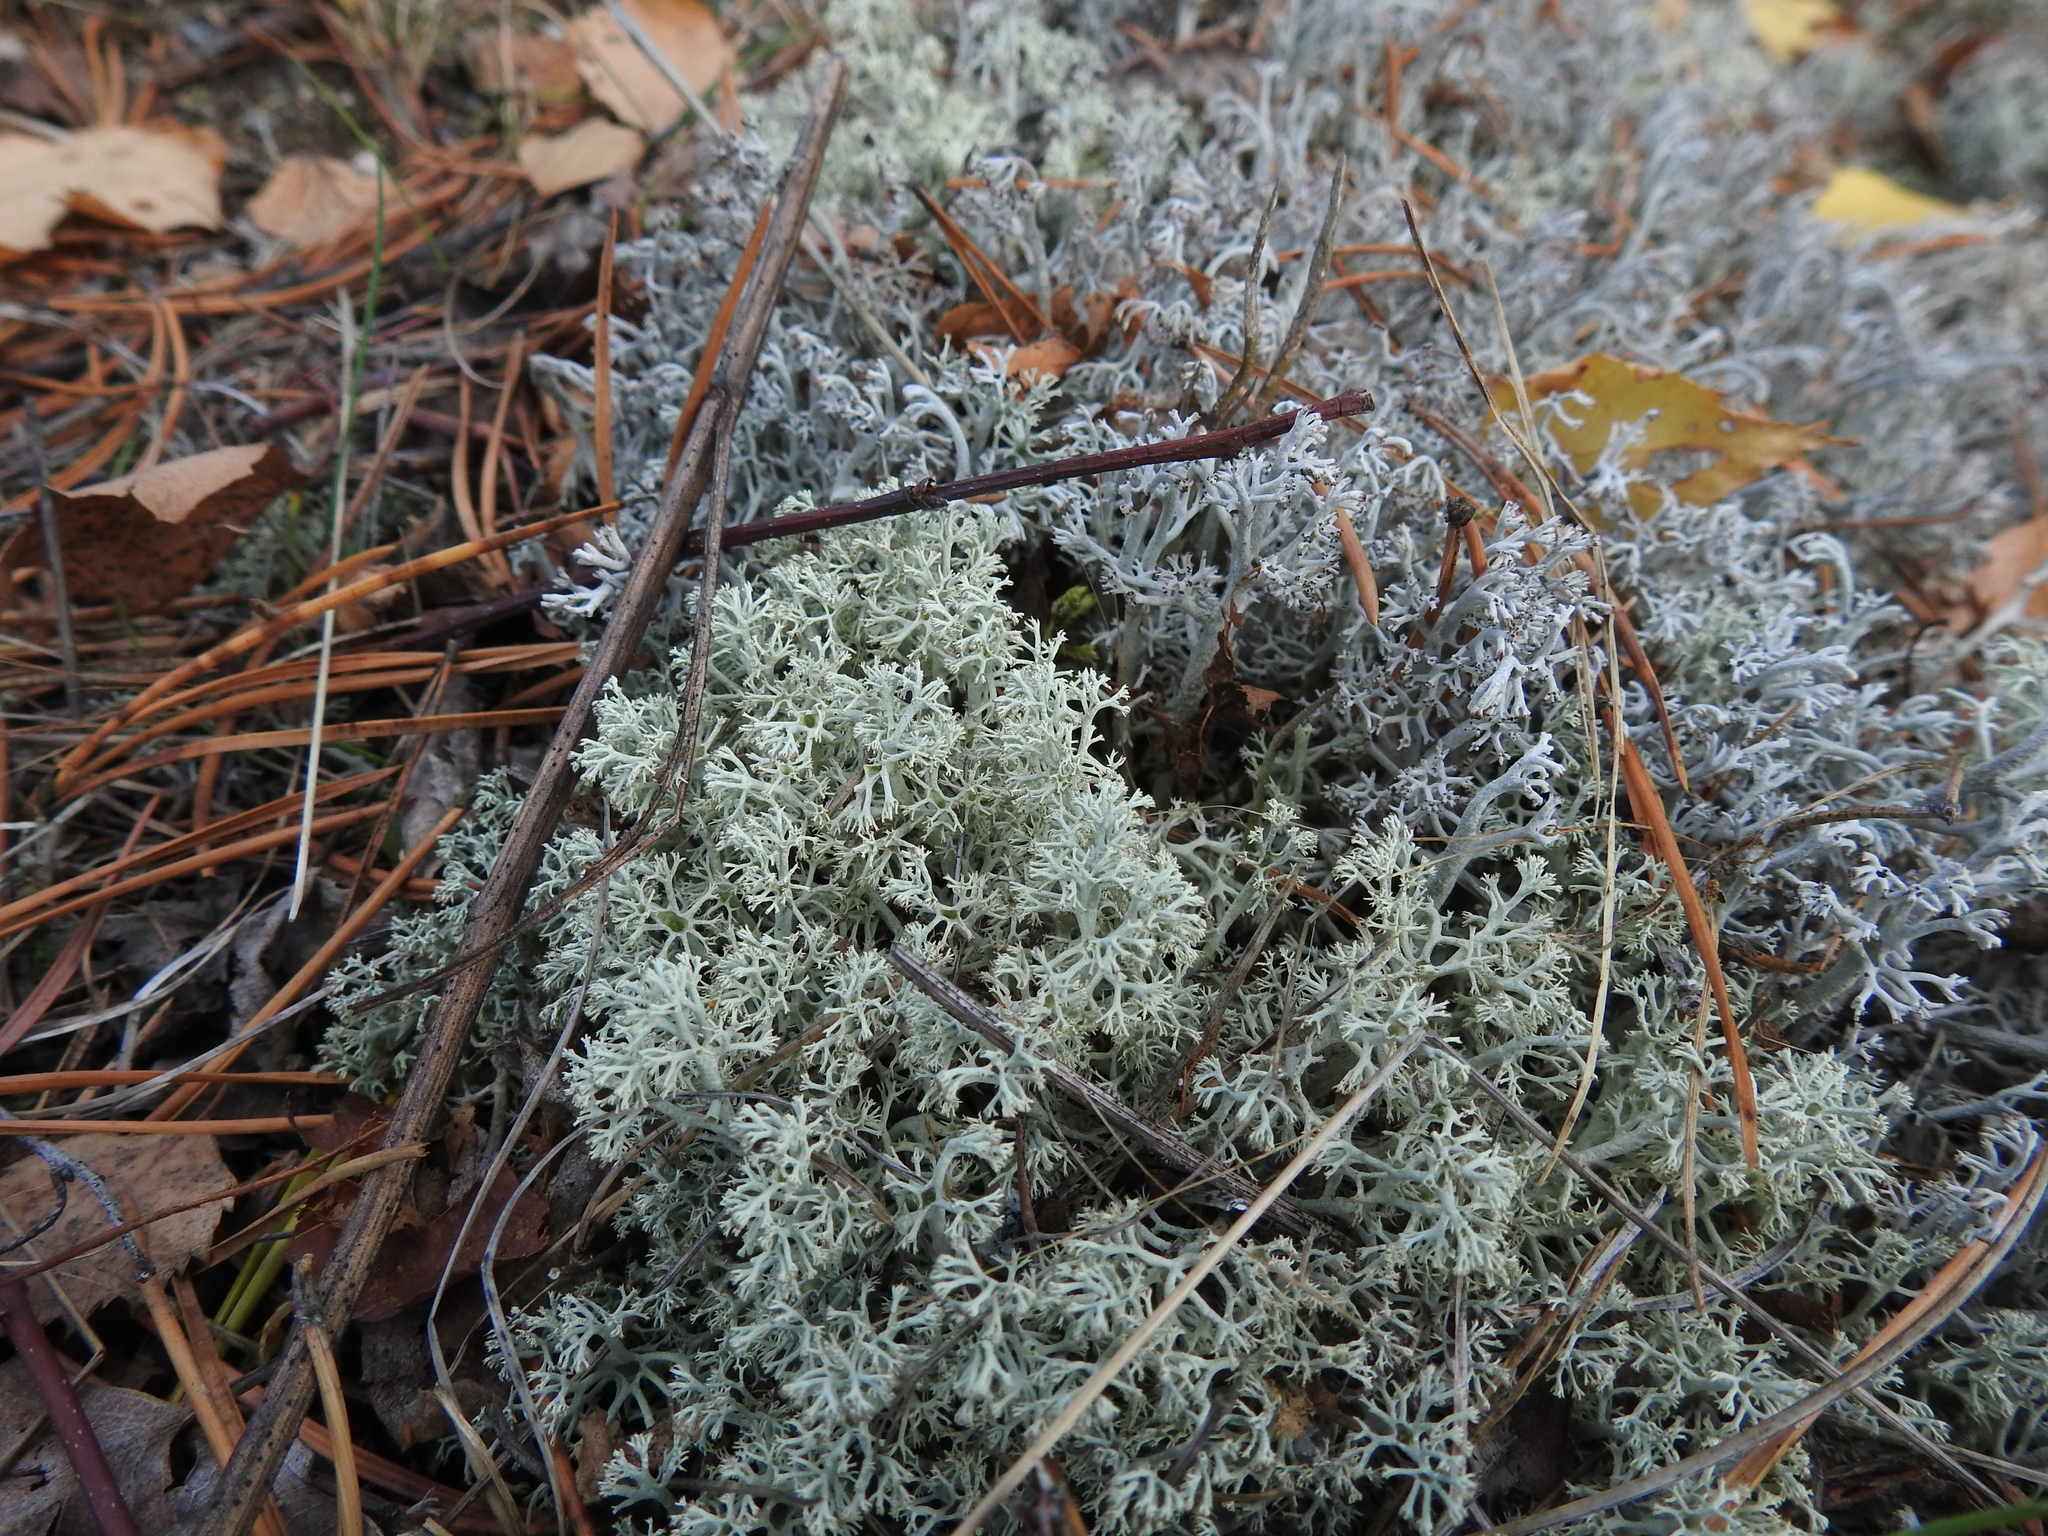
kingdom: Fungi
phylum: Ascomycota
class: Lecanoromycetes
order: Lecanorales
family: Cladoniaceae
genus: Cladonia
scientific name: Cladonia arbuscula
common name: Reindeer lichen
